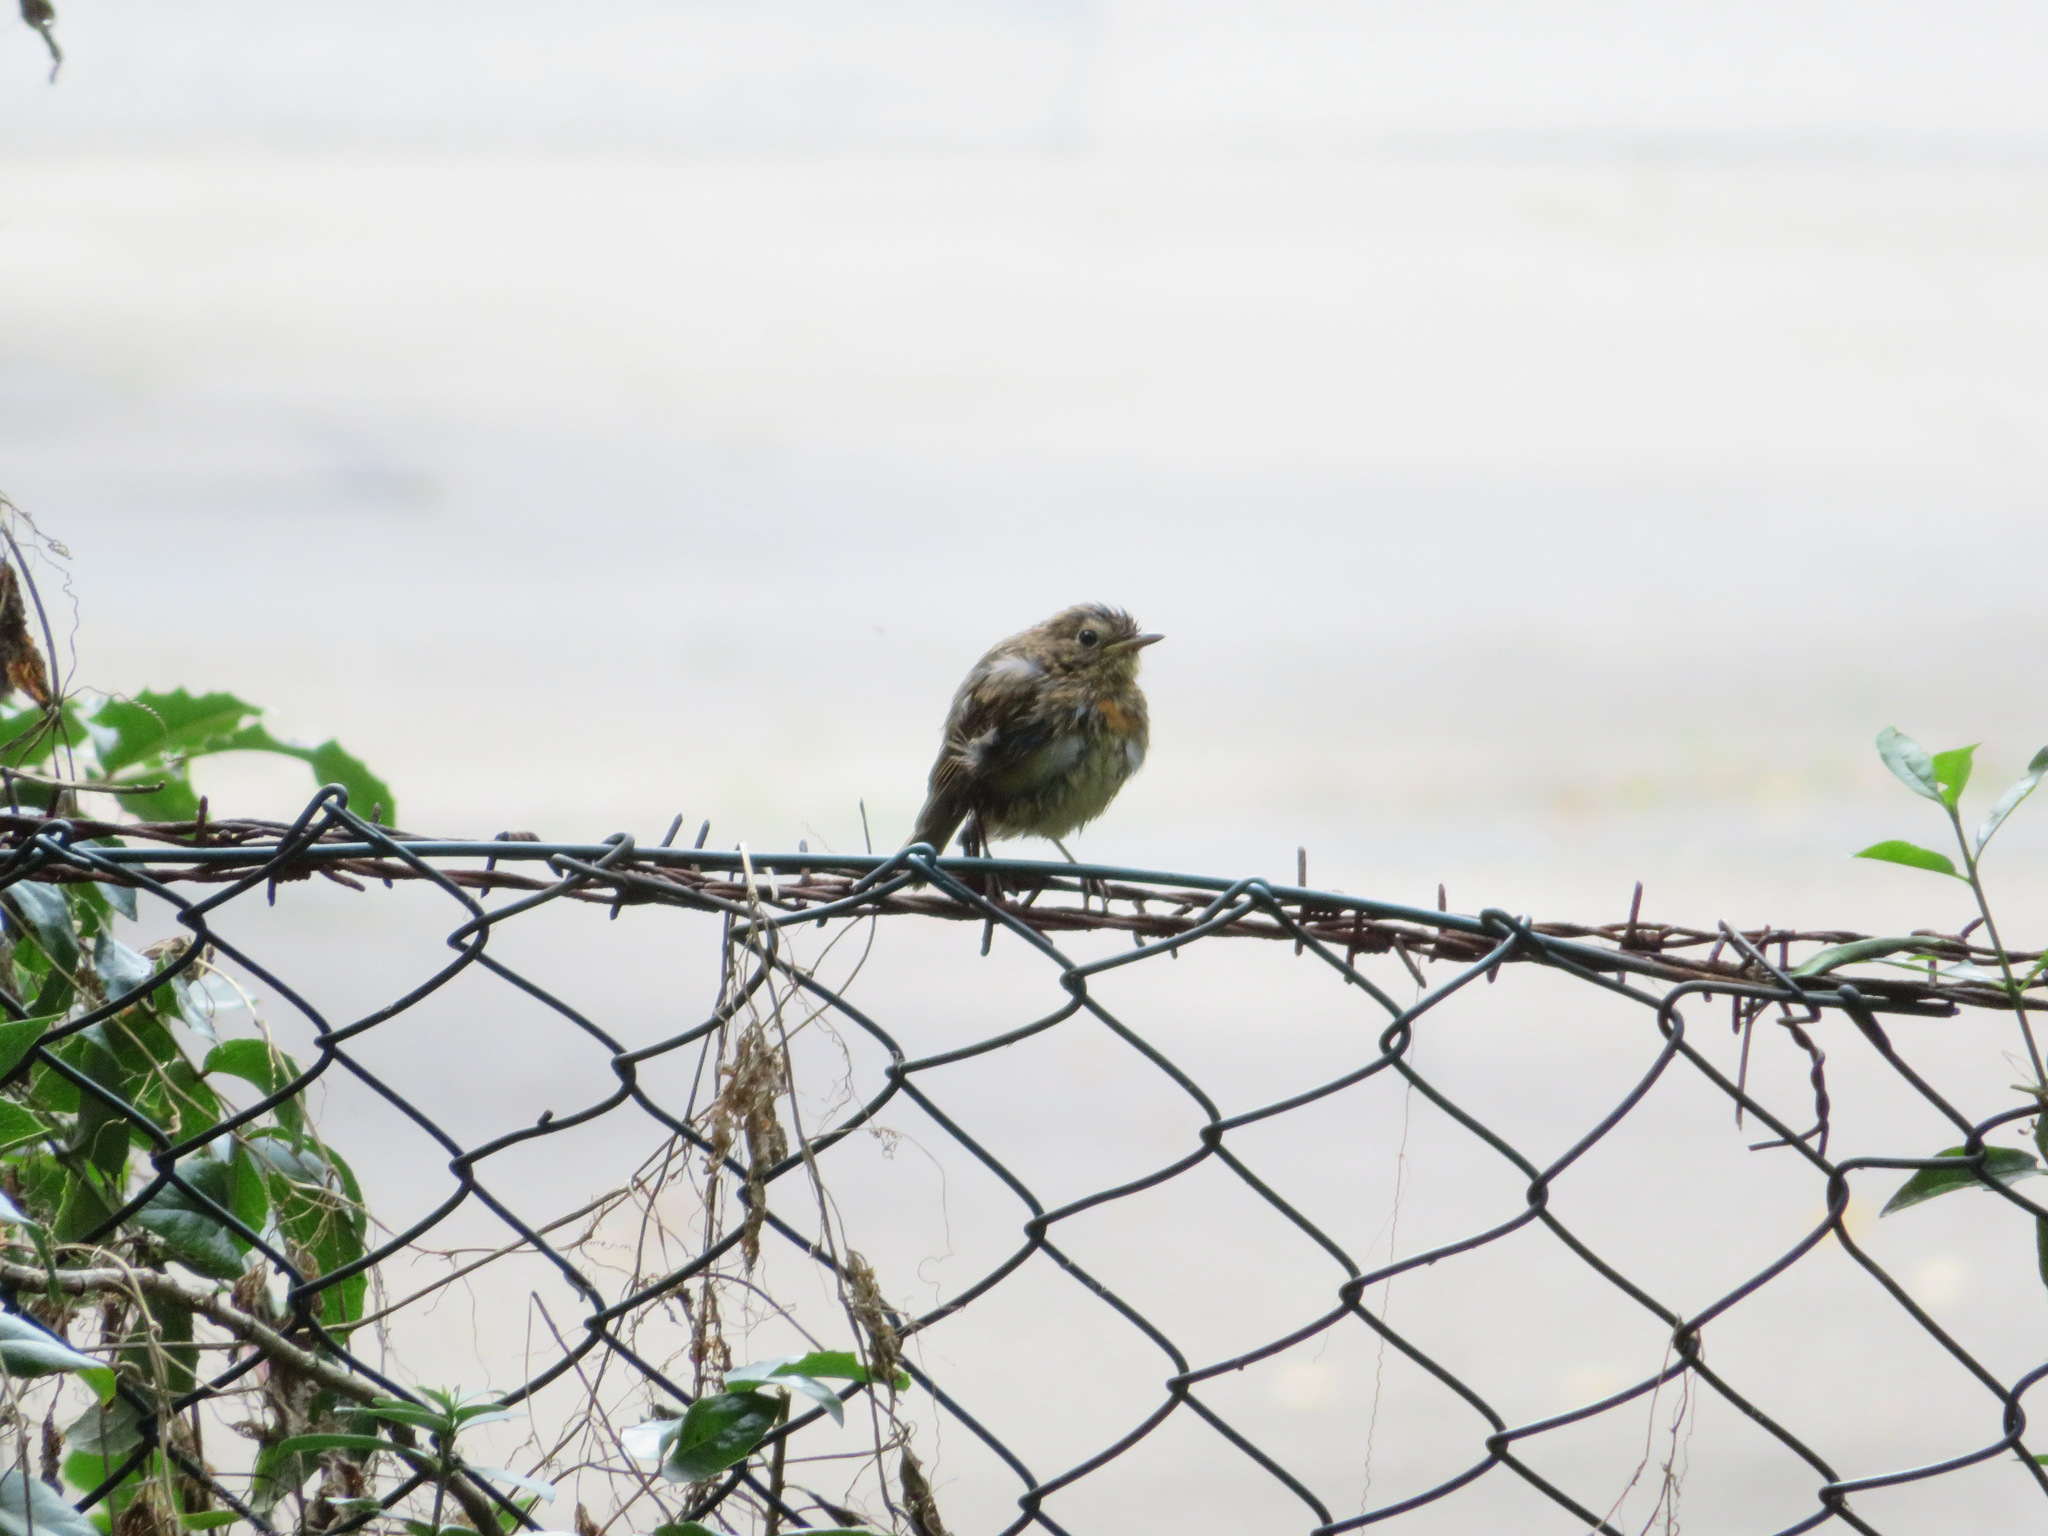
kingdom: Animalia
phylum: Chordata
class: Aves
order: Passeriformes
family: Muscicapidae
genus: Erithacus
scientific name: Erithacus rubecula
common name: European robin
